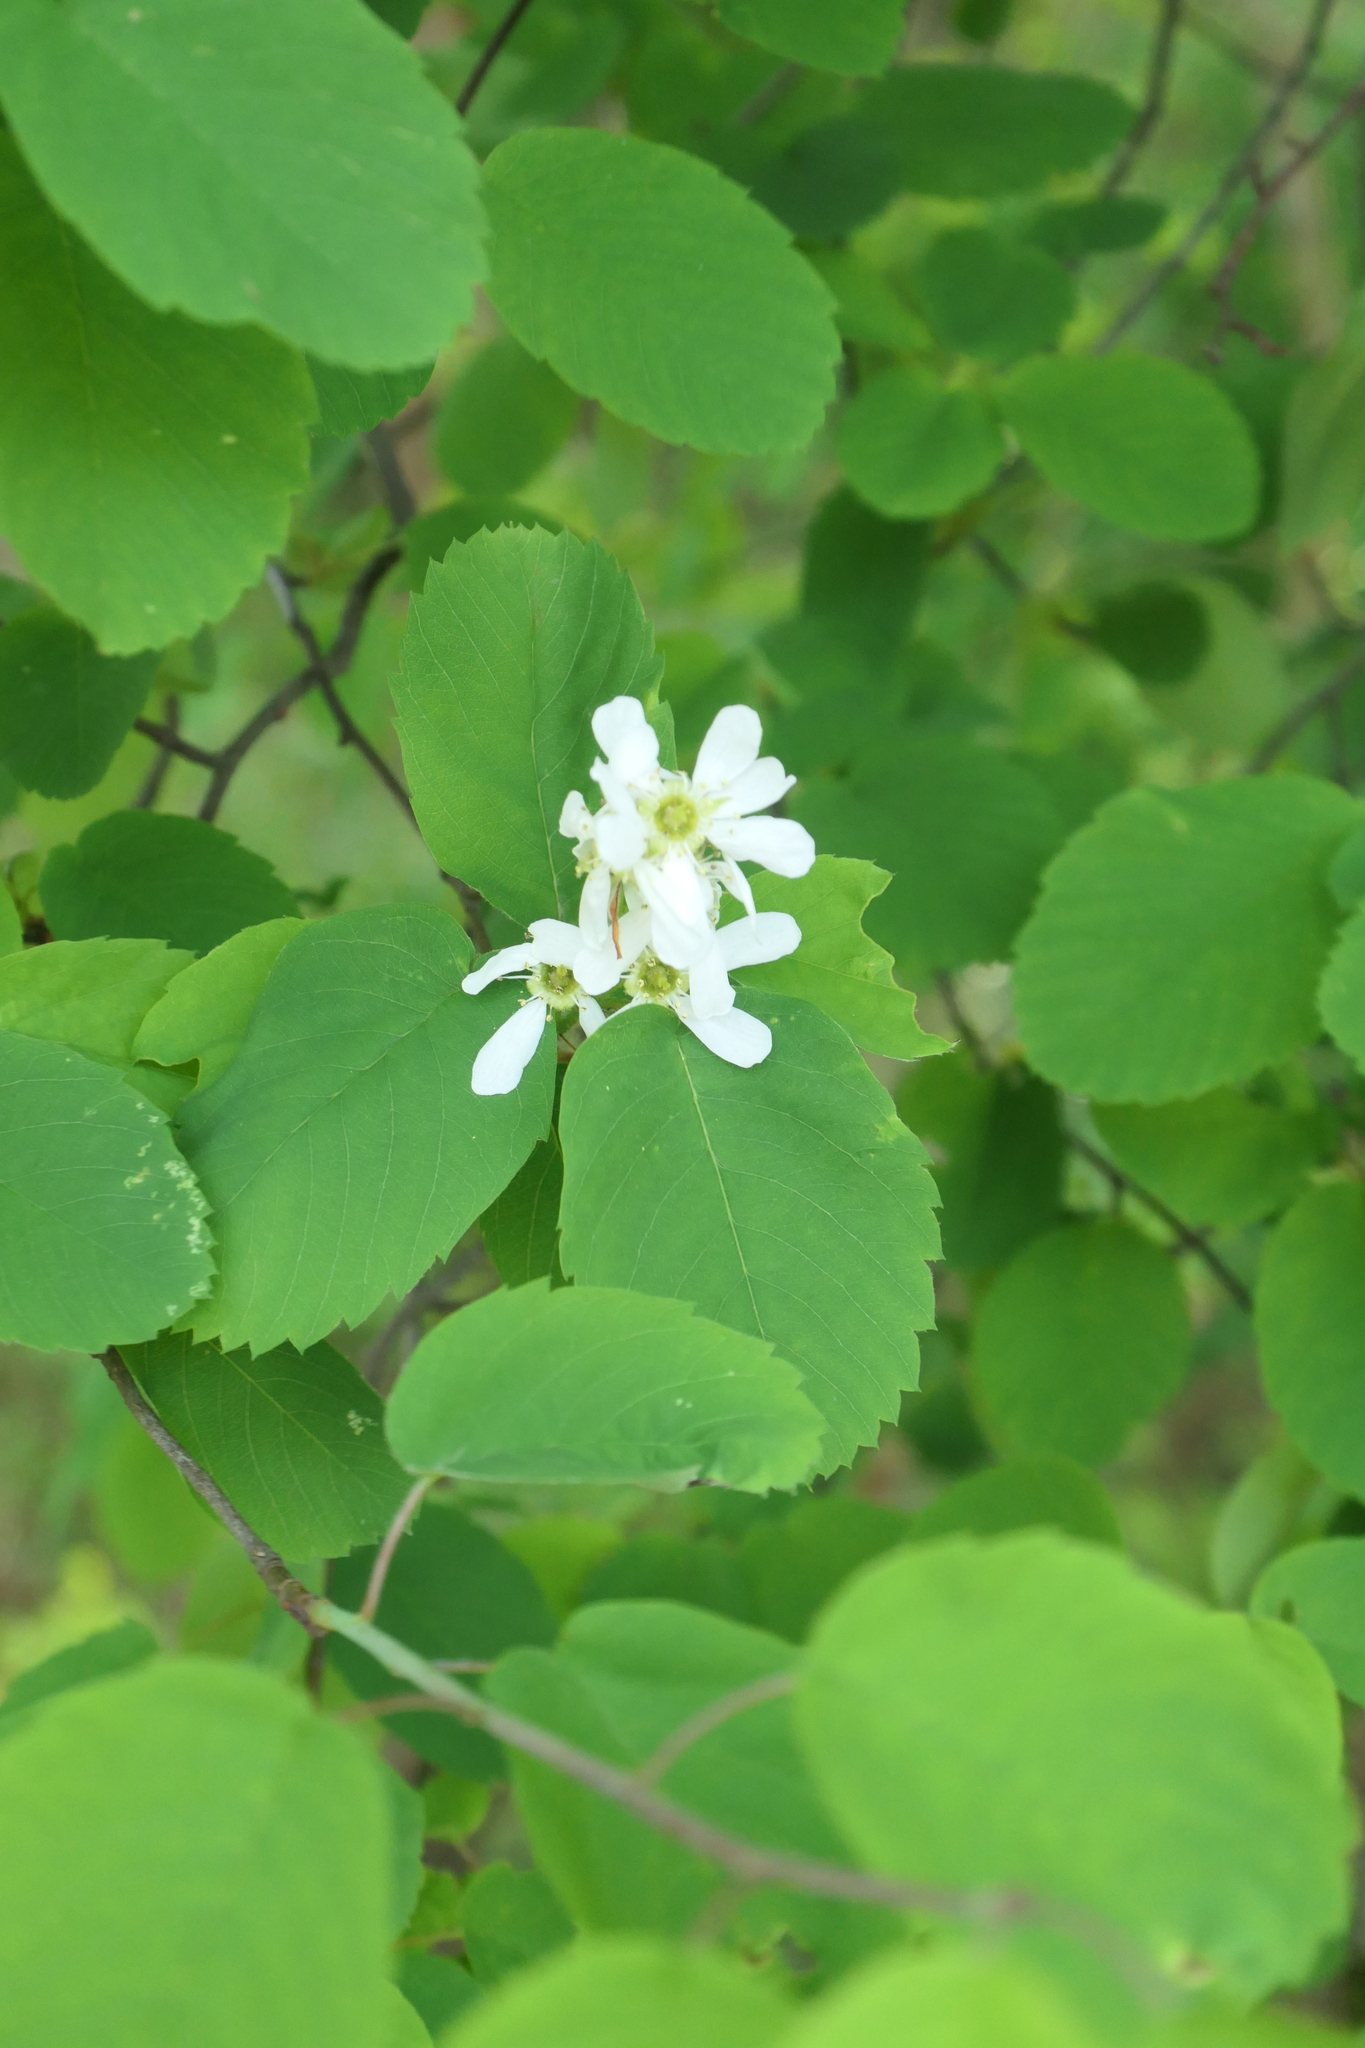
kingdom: Plantae
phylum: Tracheophyta
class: Magnoliopsida
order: Rosales
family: Rosaceae
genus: Amelanchier
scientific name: Amelanchier alnifolia
